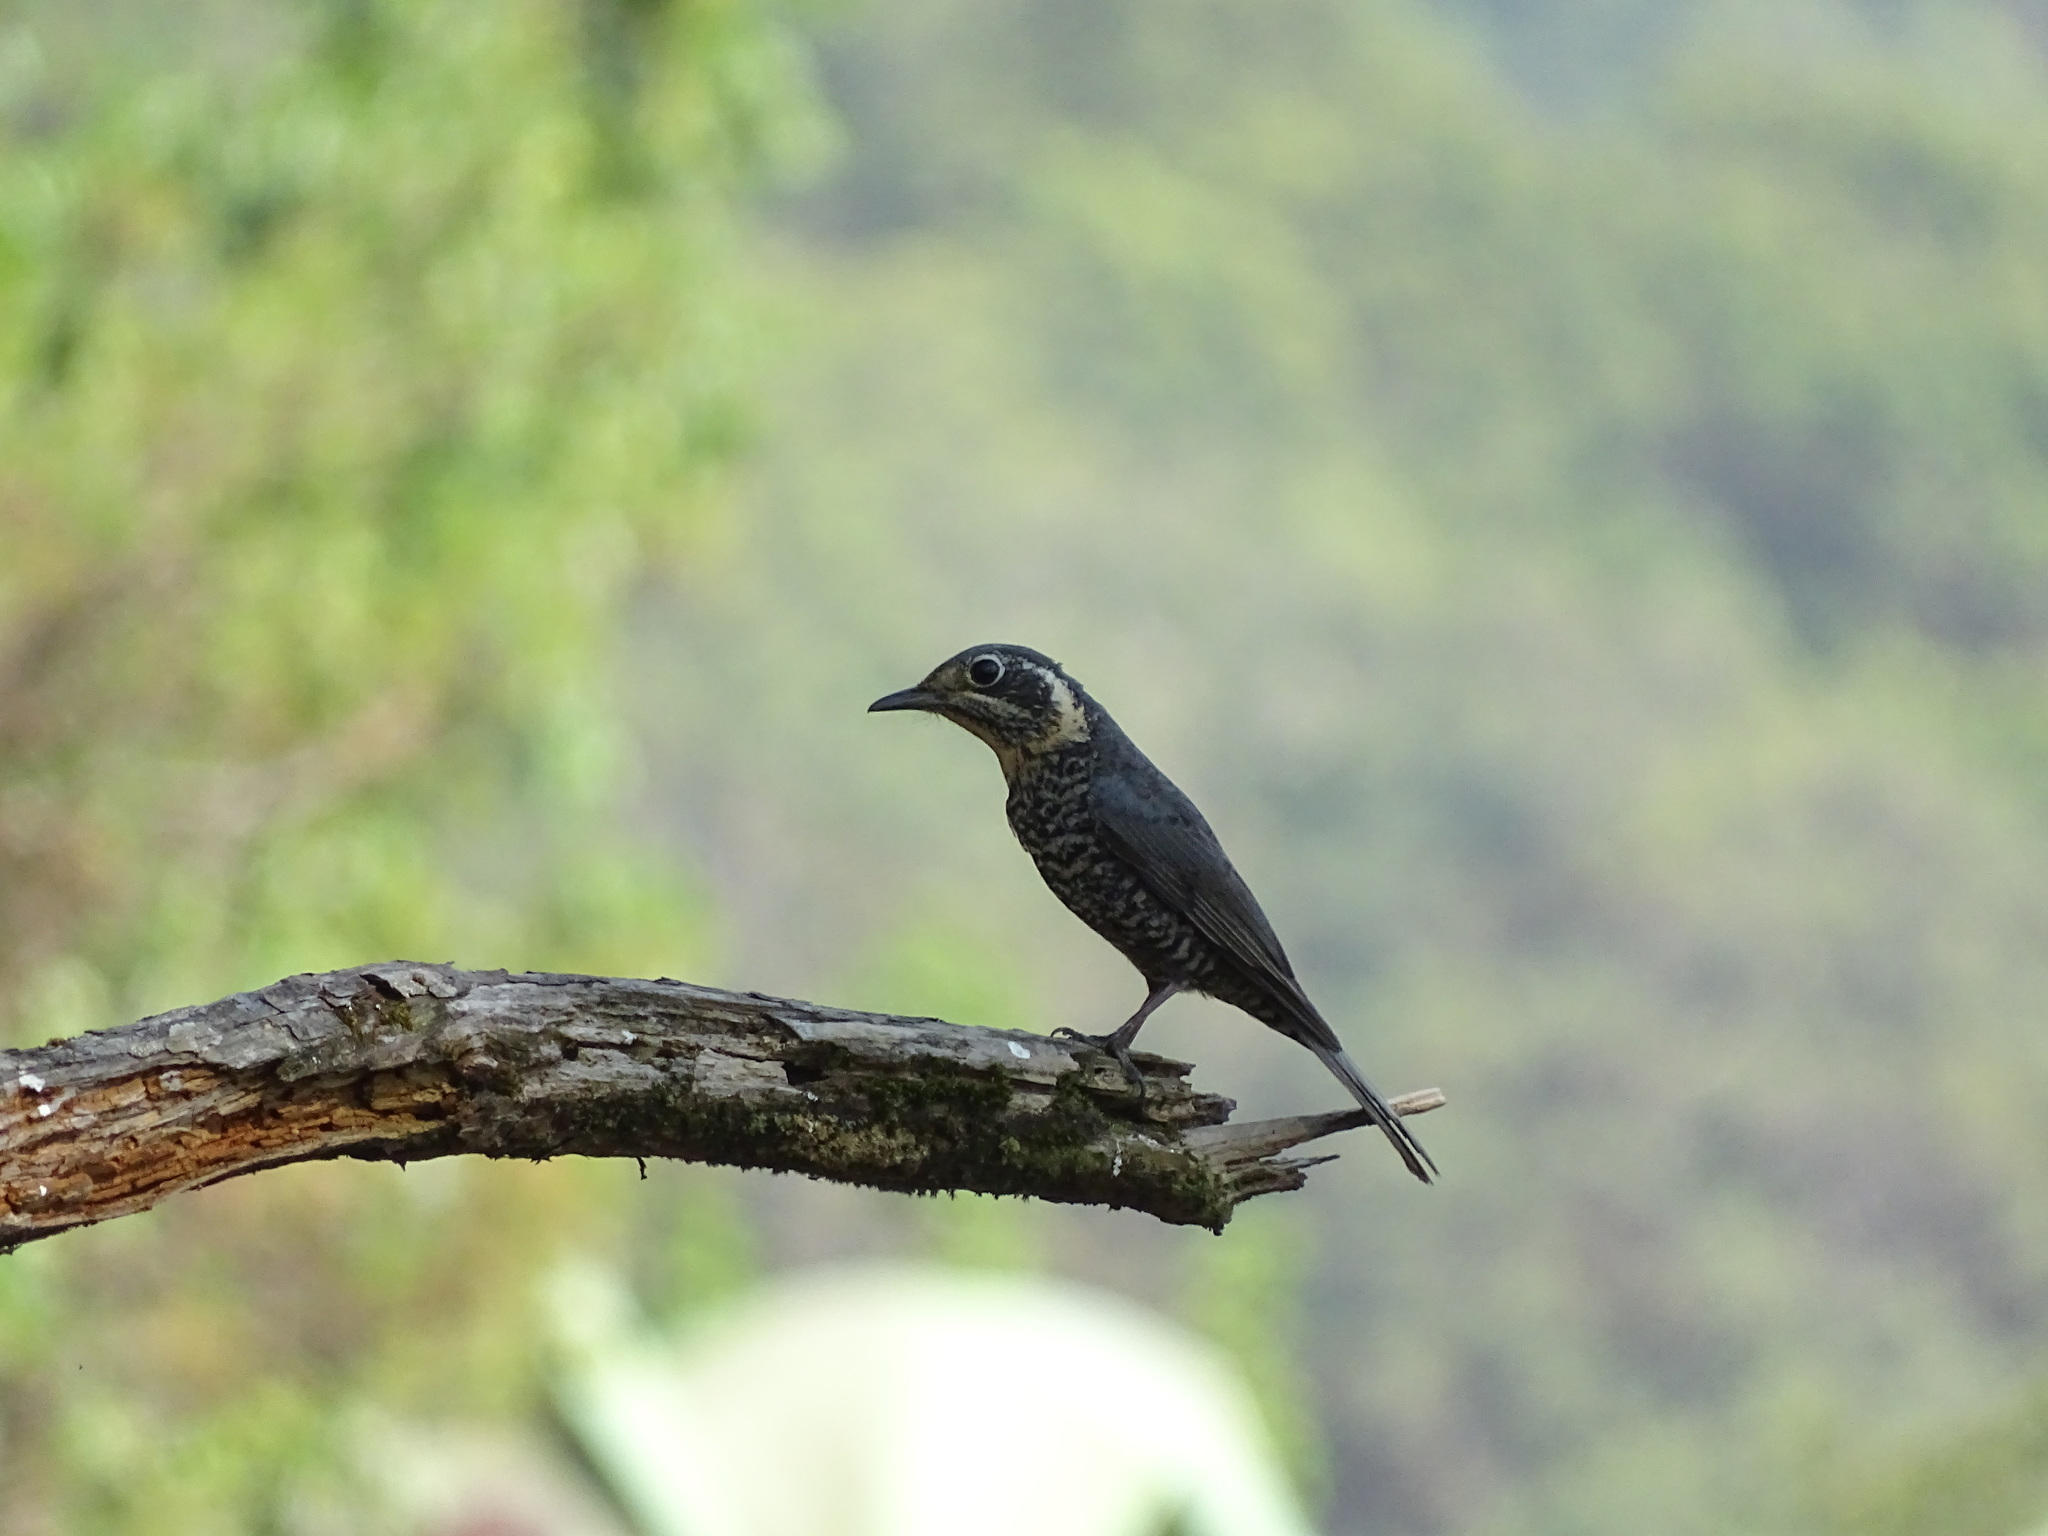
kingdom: Animalia
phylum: Chordata
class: Aves
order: Passeriformes
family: Muscicapidae
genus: Monticola
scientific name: Monticola rufiventris
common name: Chestnut-bellied rock thrush
